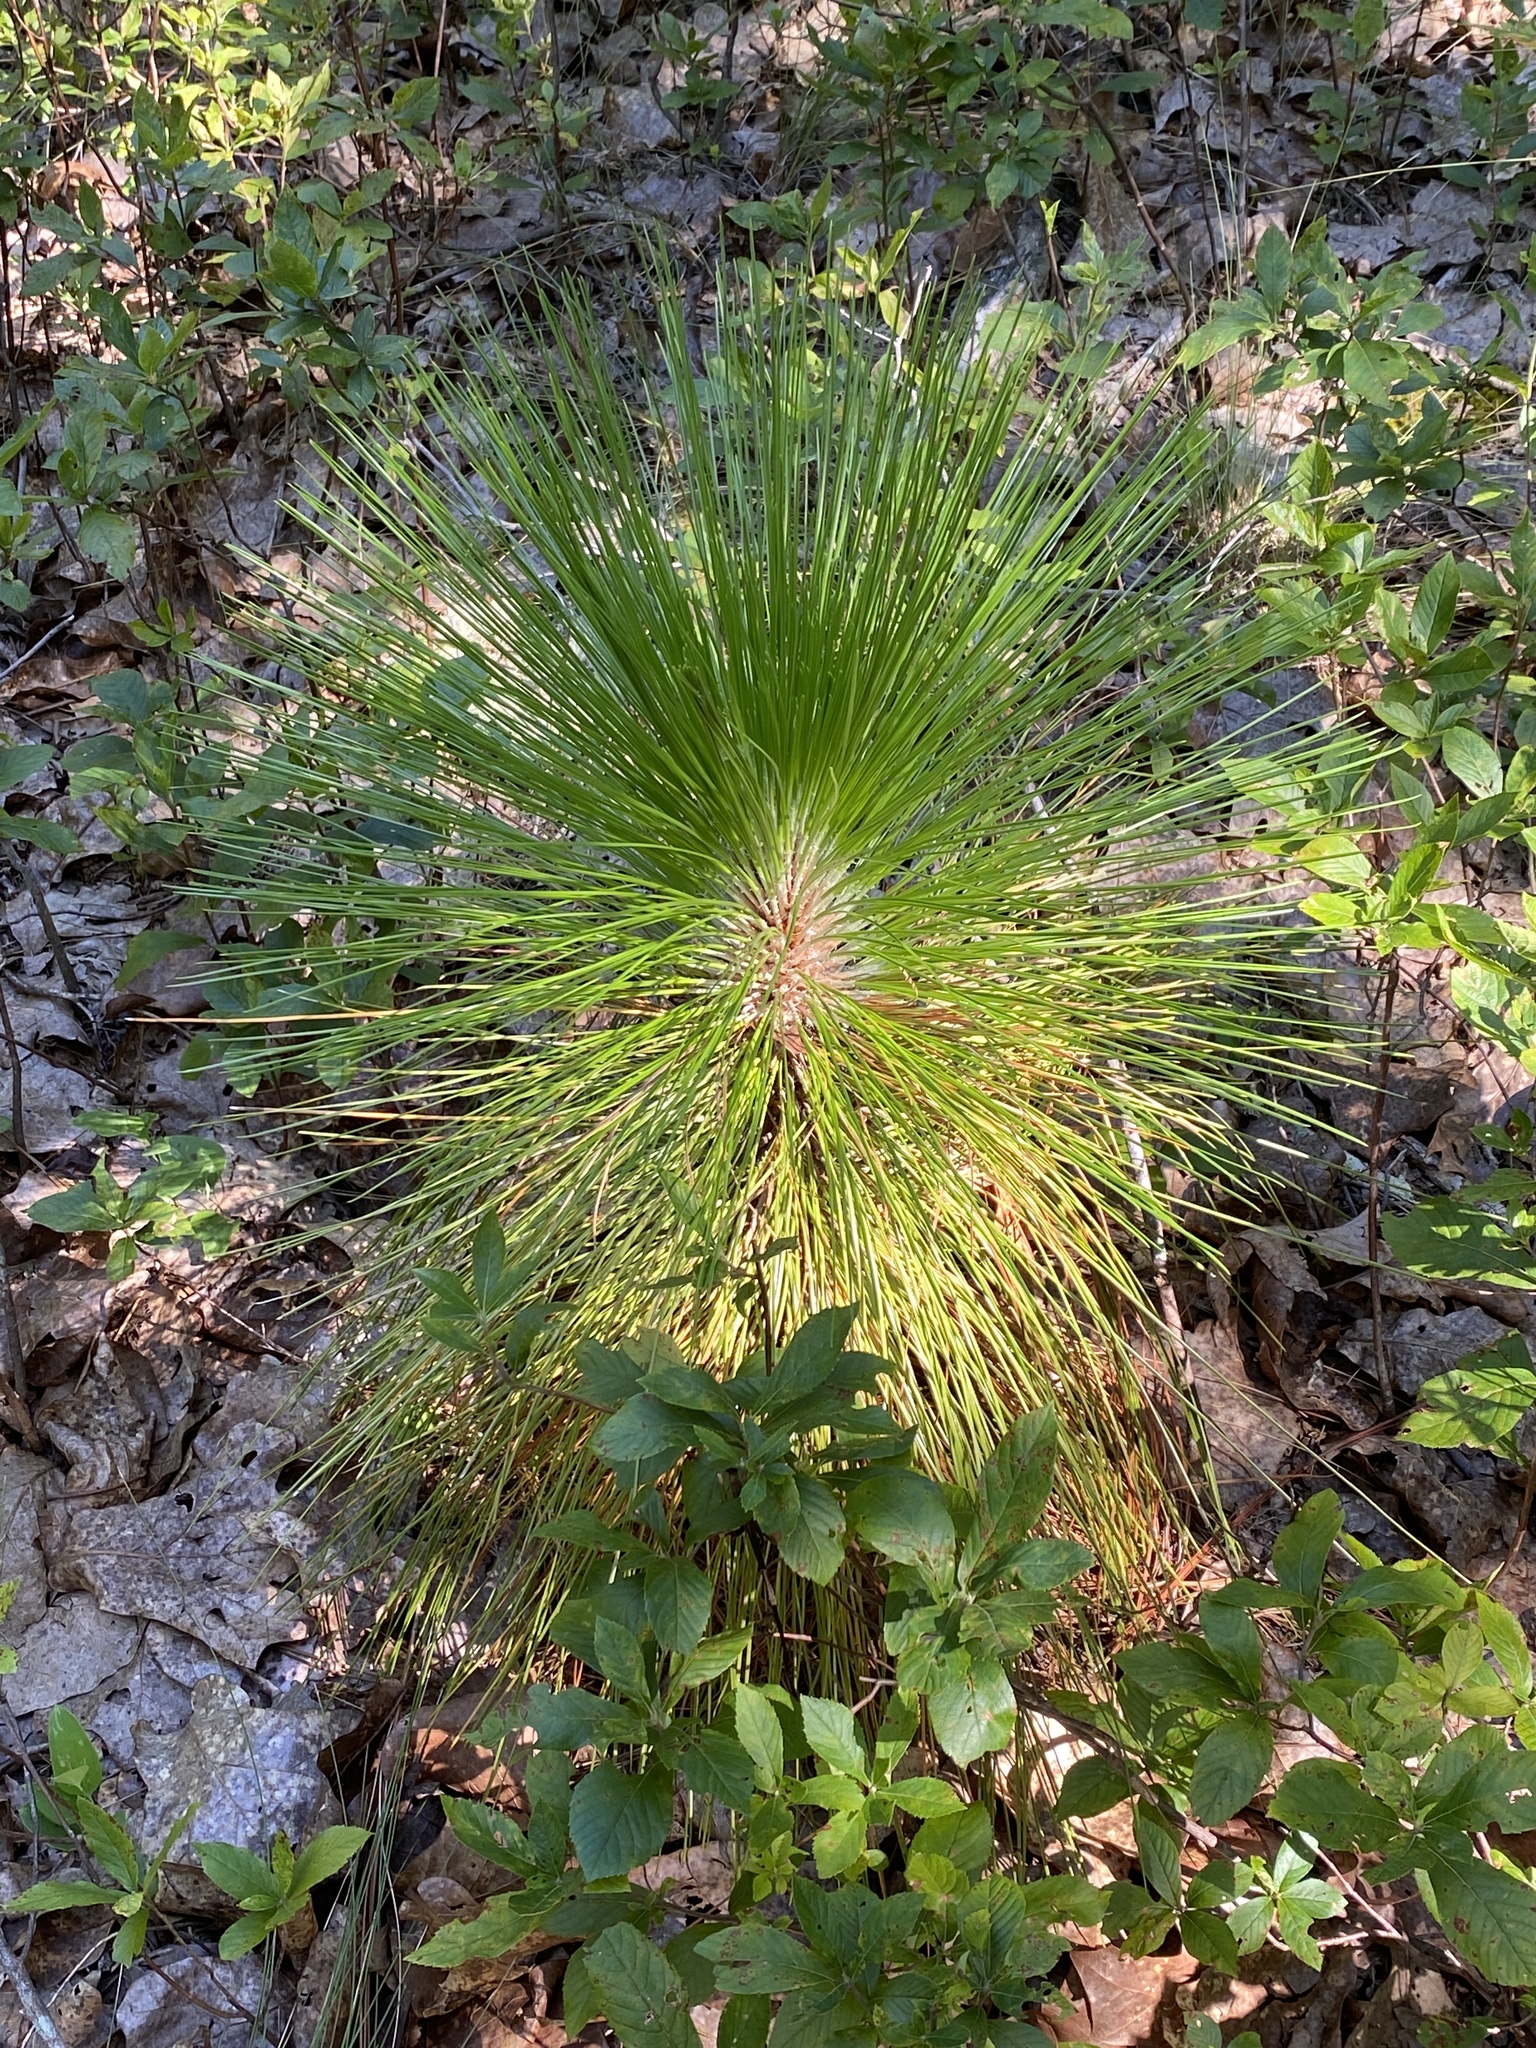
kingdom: Plantae
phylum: Tracheophyta
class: Pinopsida
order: Pinales
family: Pinaceae
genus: Pinus
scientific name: Pinus palustris
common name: Longleaf pine
